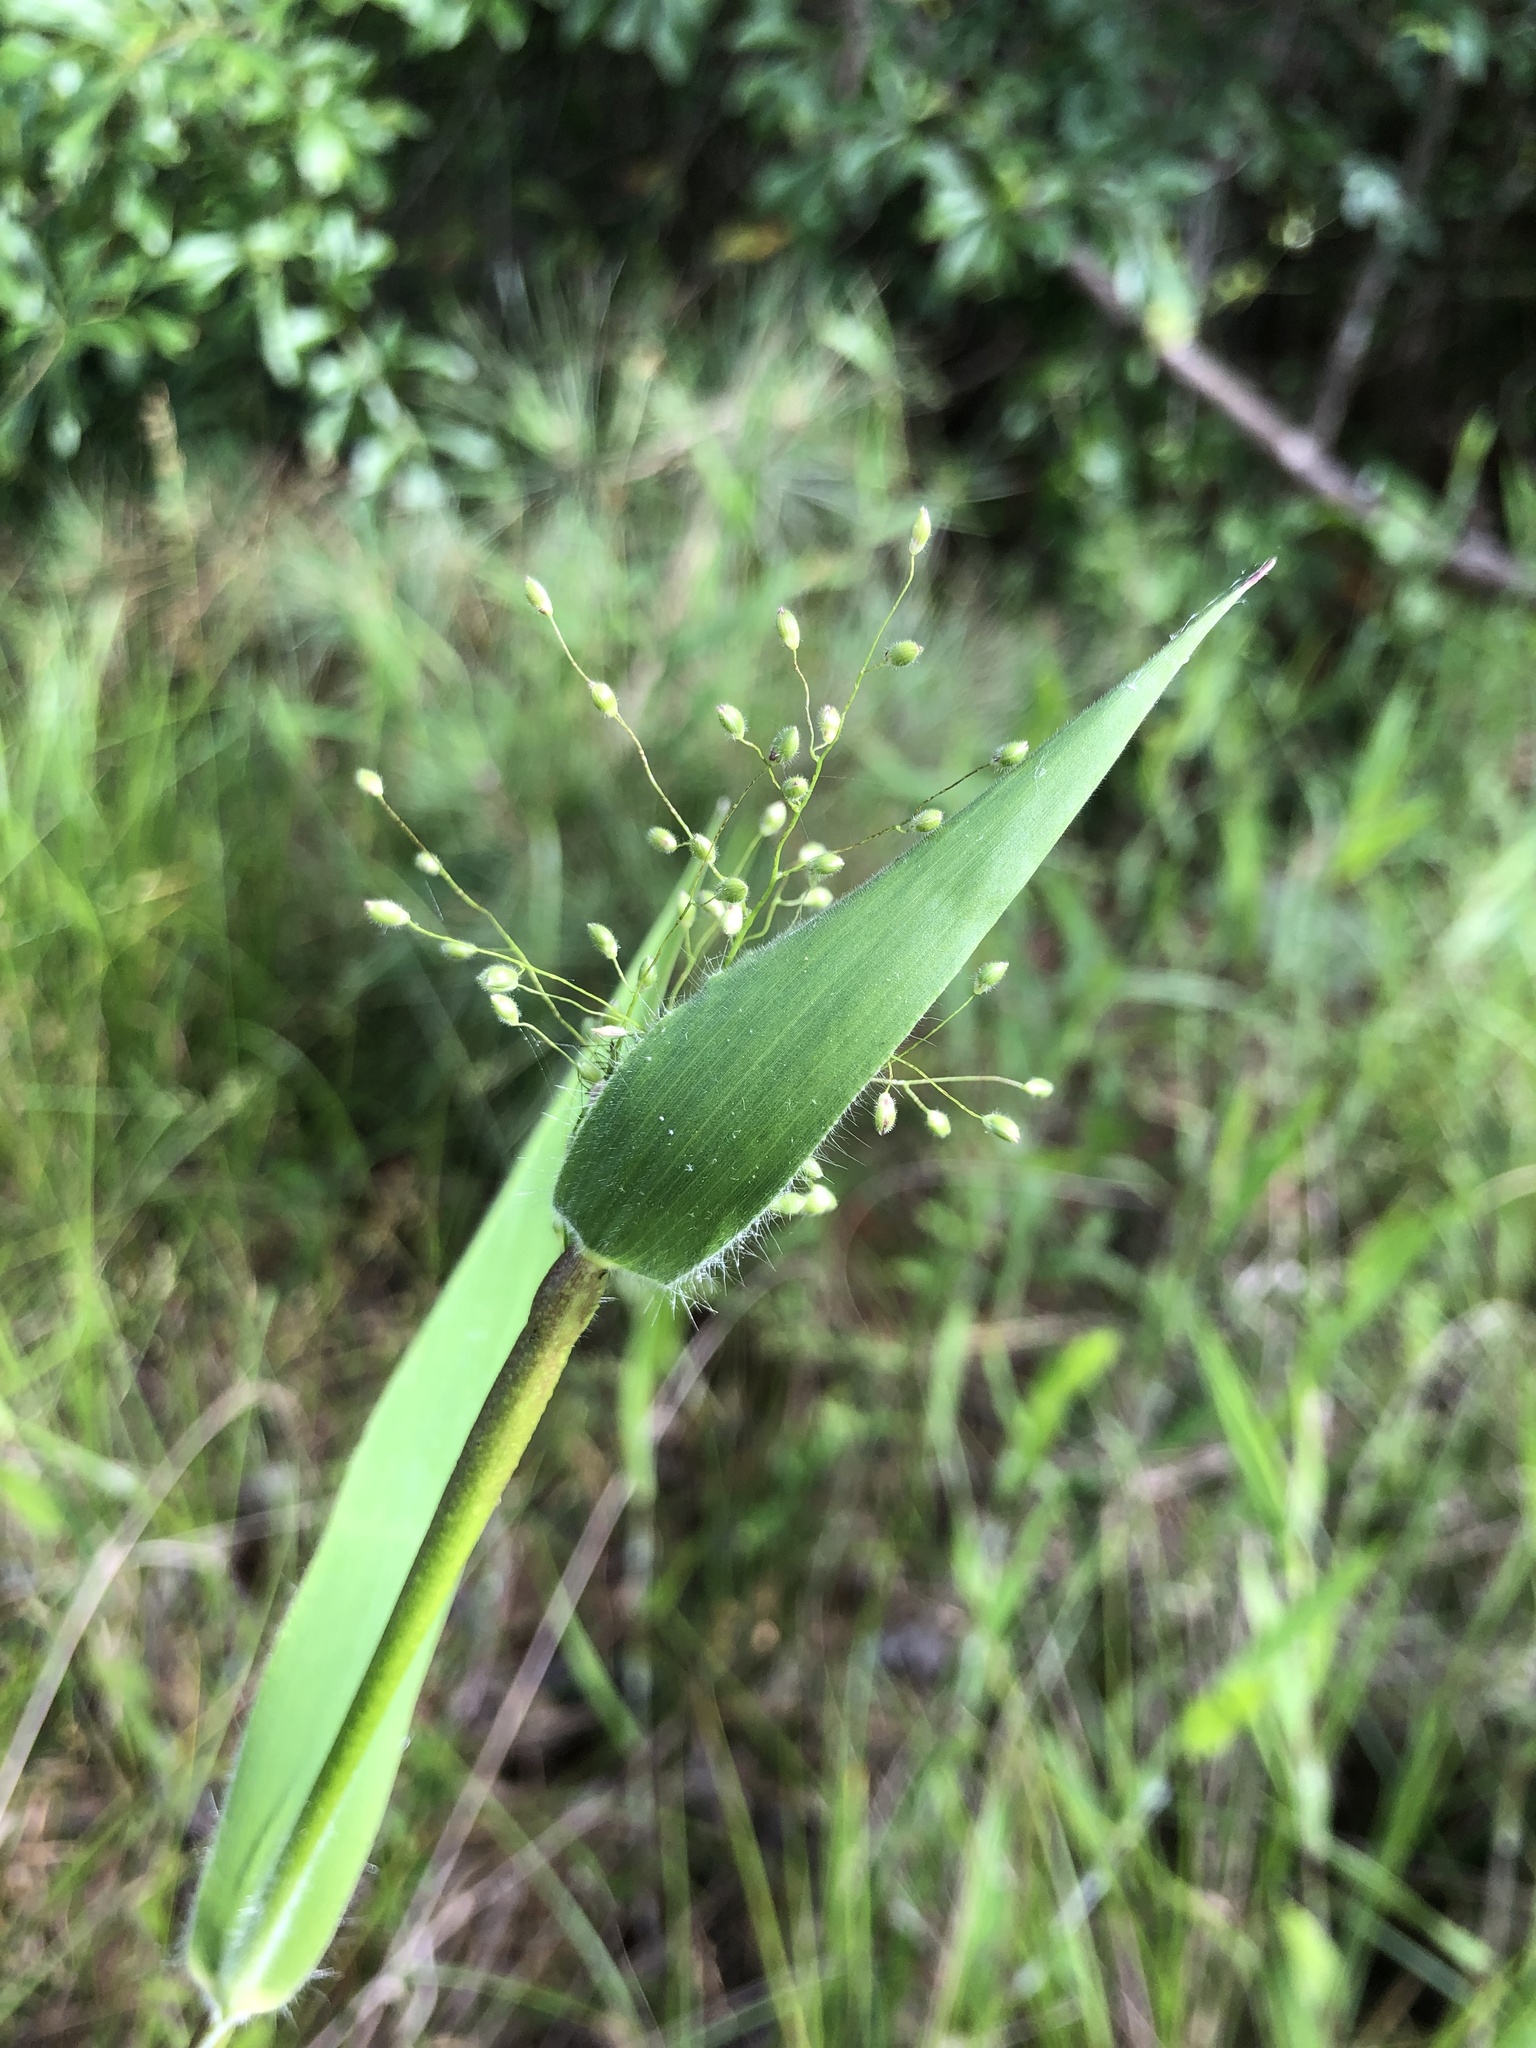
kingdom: Plantae
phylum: Tracheophyta
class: Liliopsida
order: Poales
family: Poaceae
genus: Dichanthelium
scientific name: Dichanthelium scoparium
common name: Velvety panic grass
